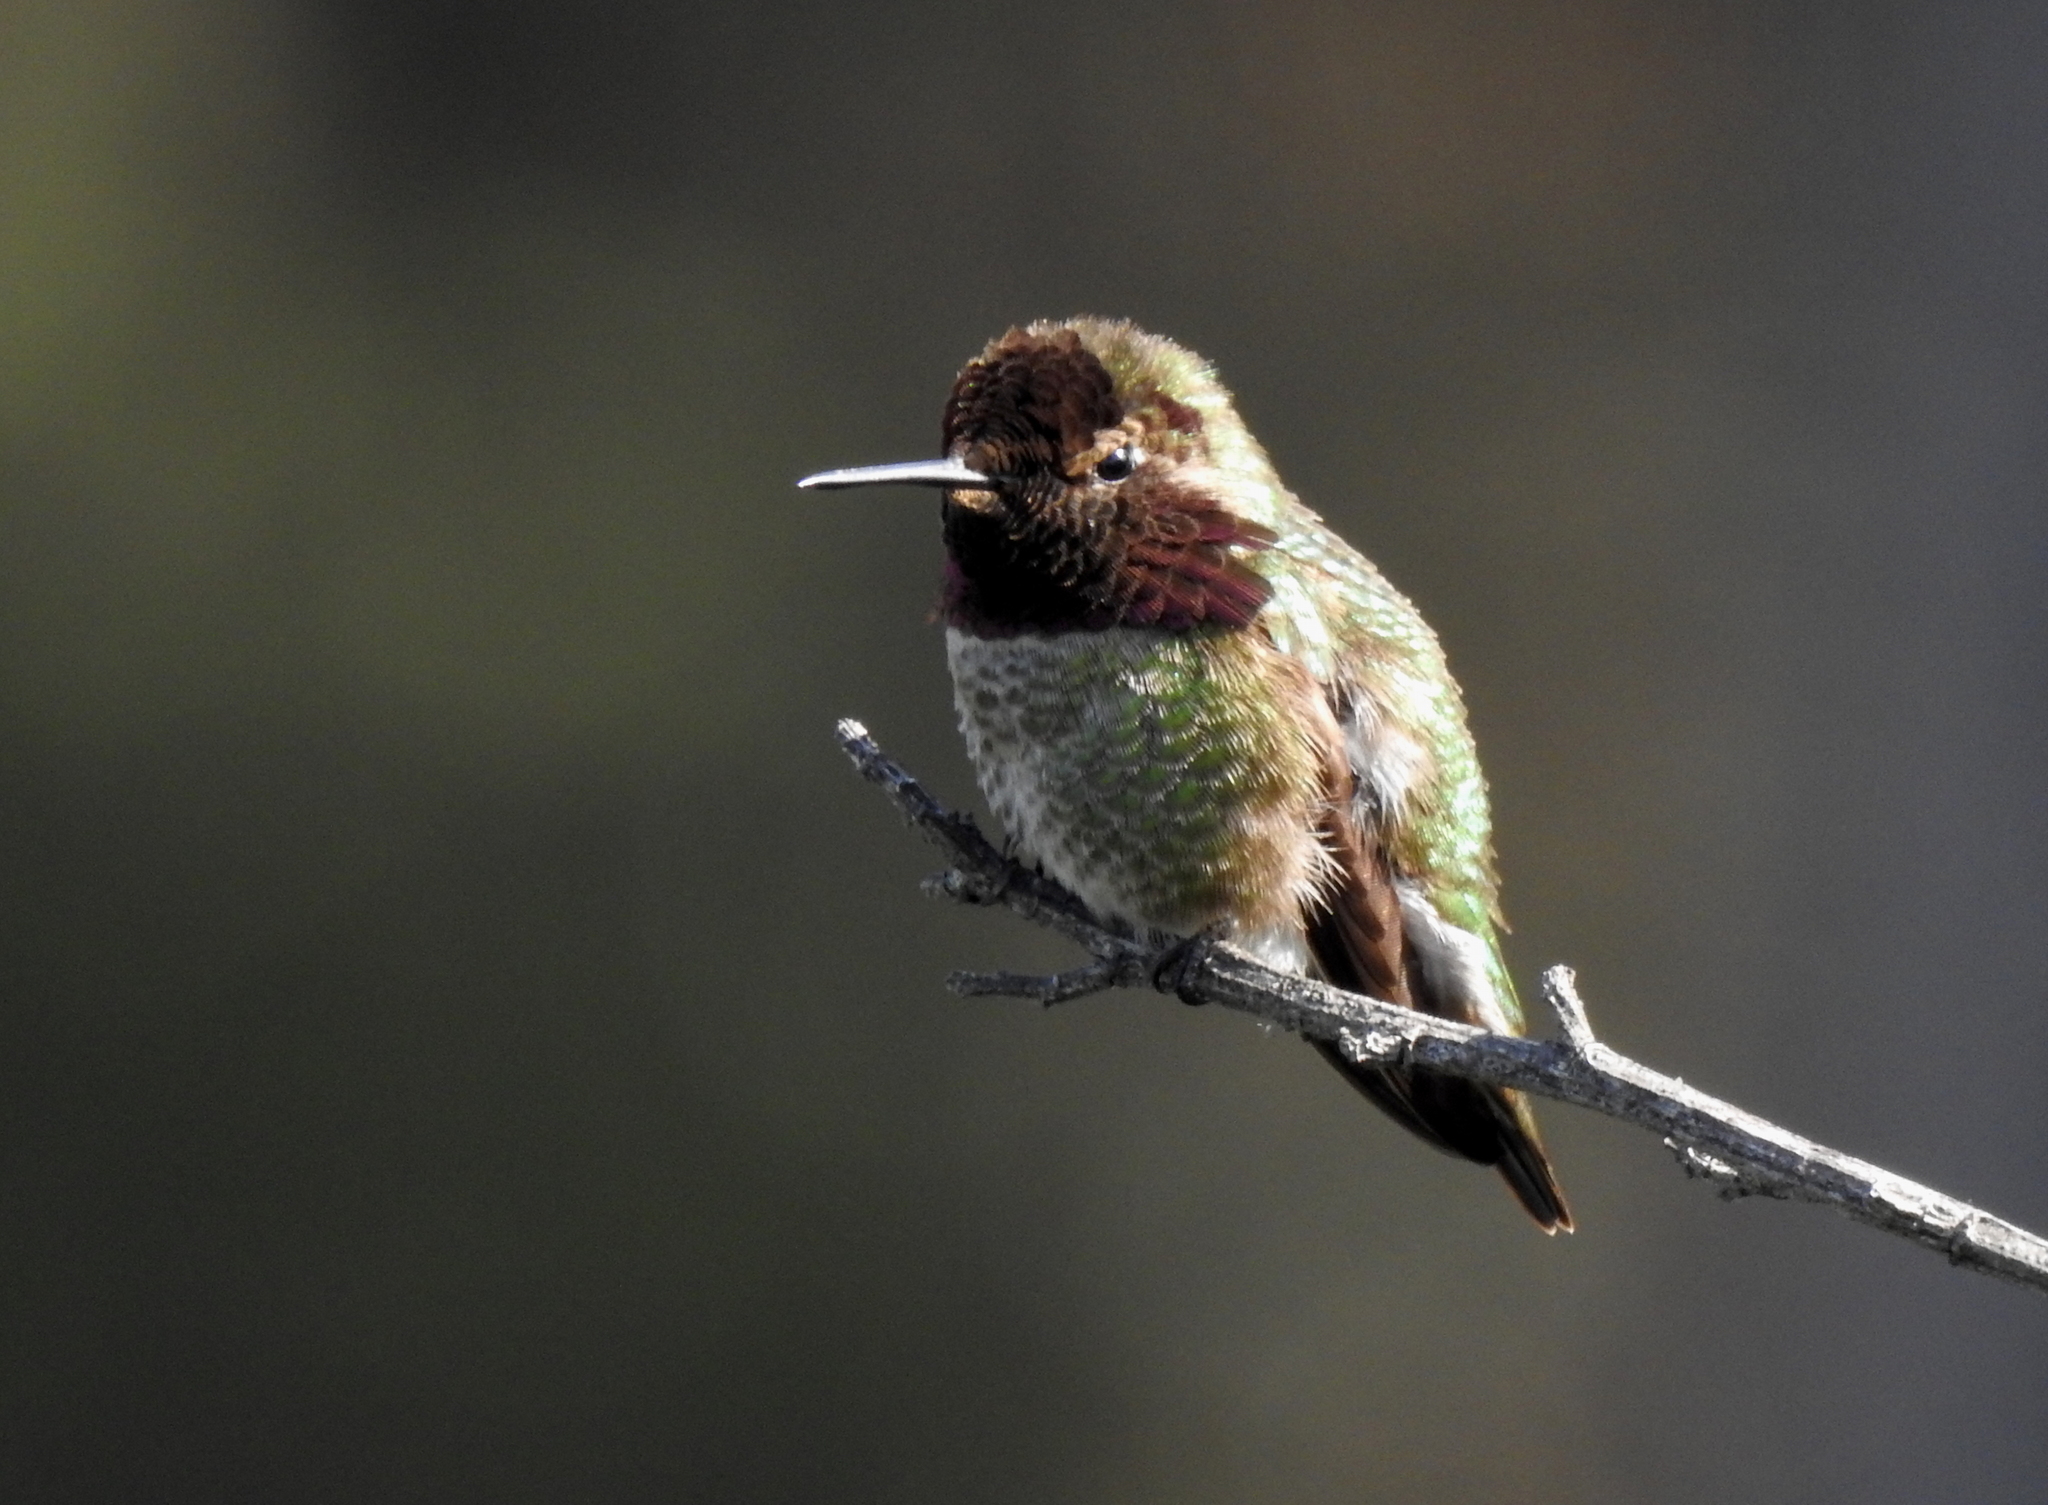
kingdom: Animalia
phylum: Chordata
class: Aves
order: Apodiformes
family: Trochilidae
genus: Calypte
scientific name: Calypte anna
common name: Anna's hummingbird
